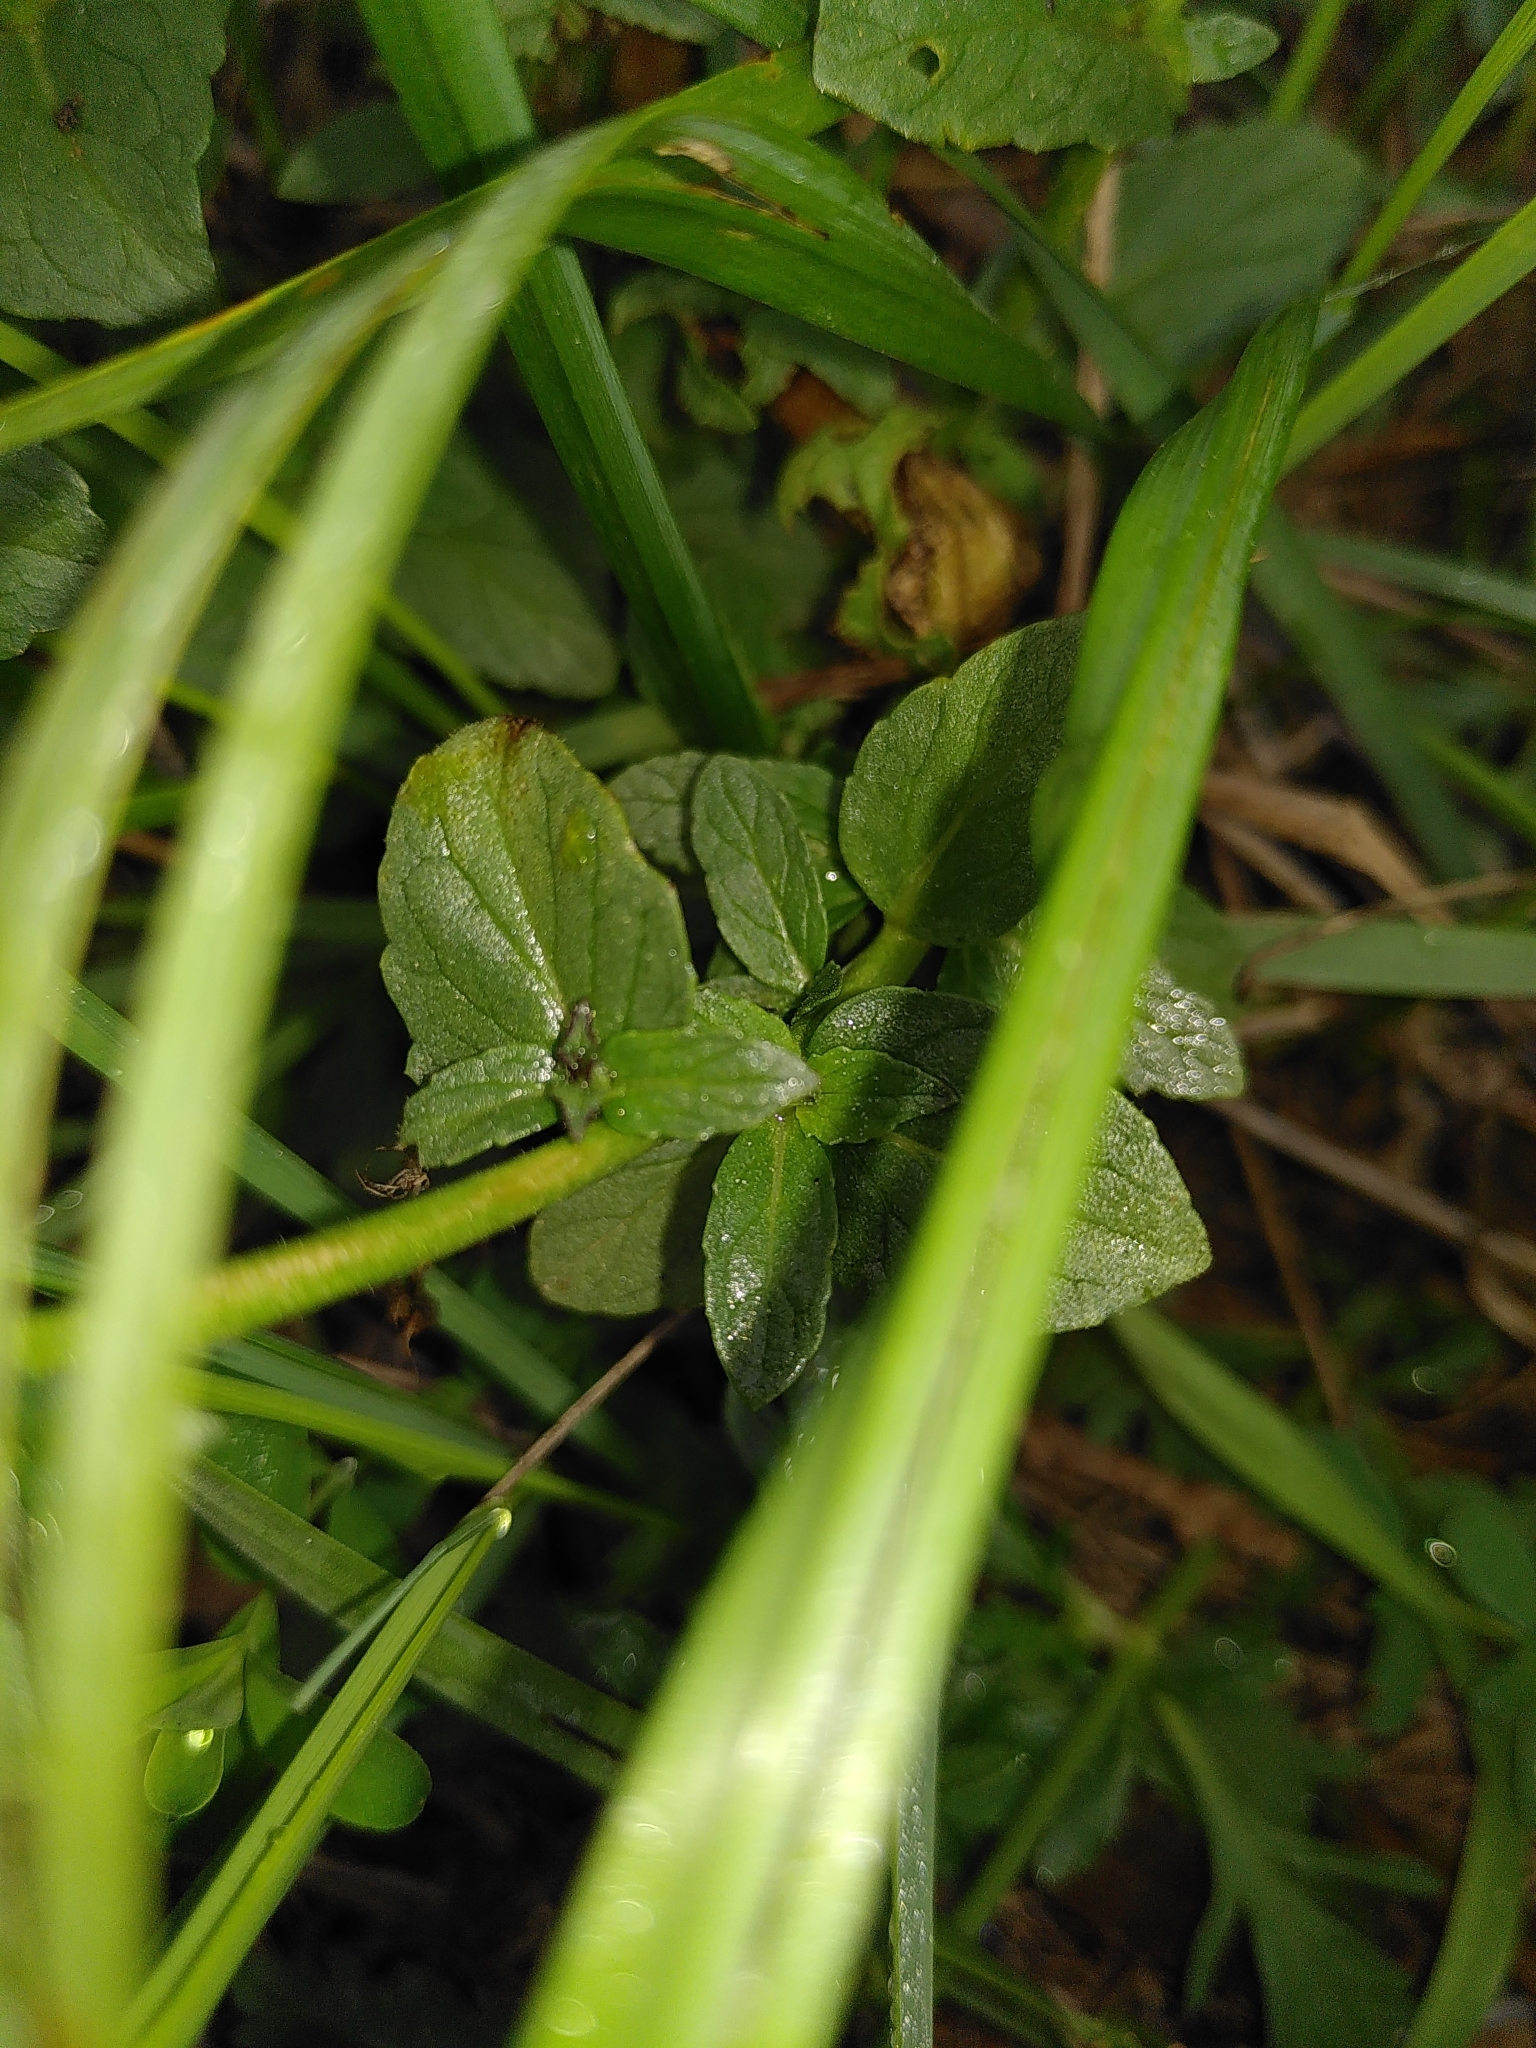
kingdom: Plantae
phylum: Tracheophyta
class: Magnoliopsida
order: Lamiales
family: Scrophulariaceae
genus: Verbascum
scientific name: Verbascum blattaria
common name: Moth mullein
